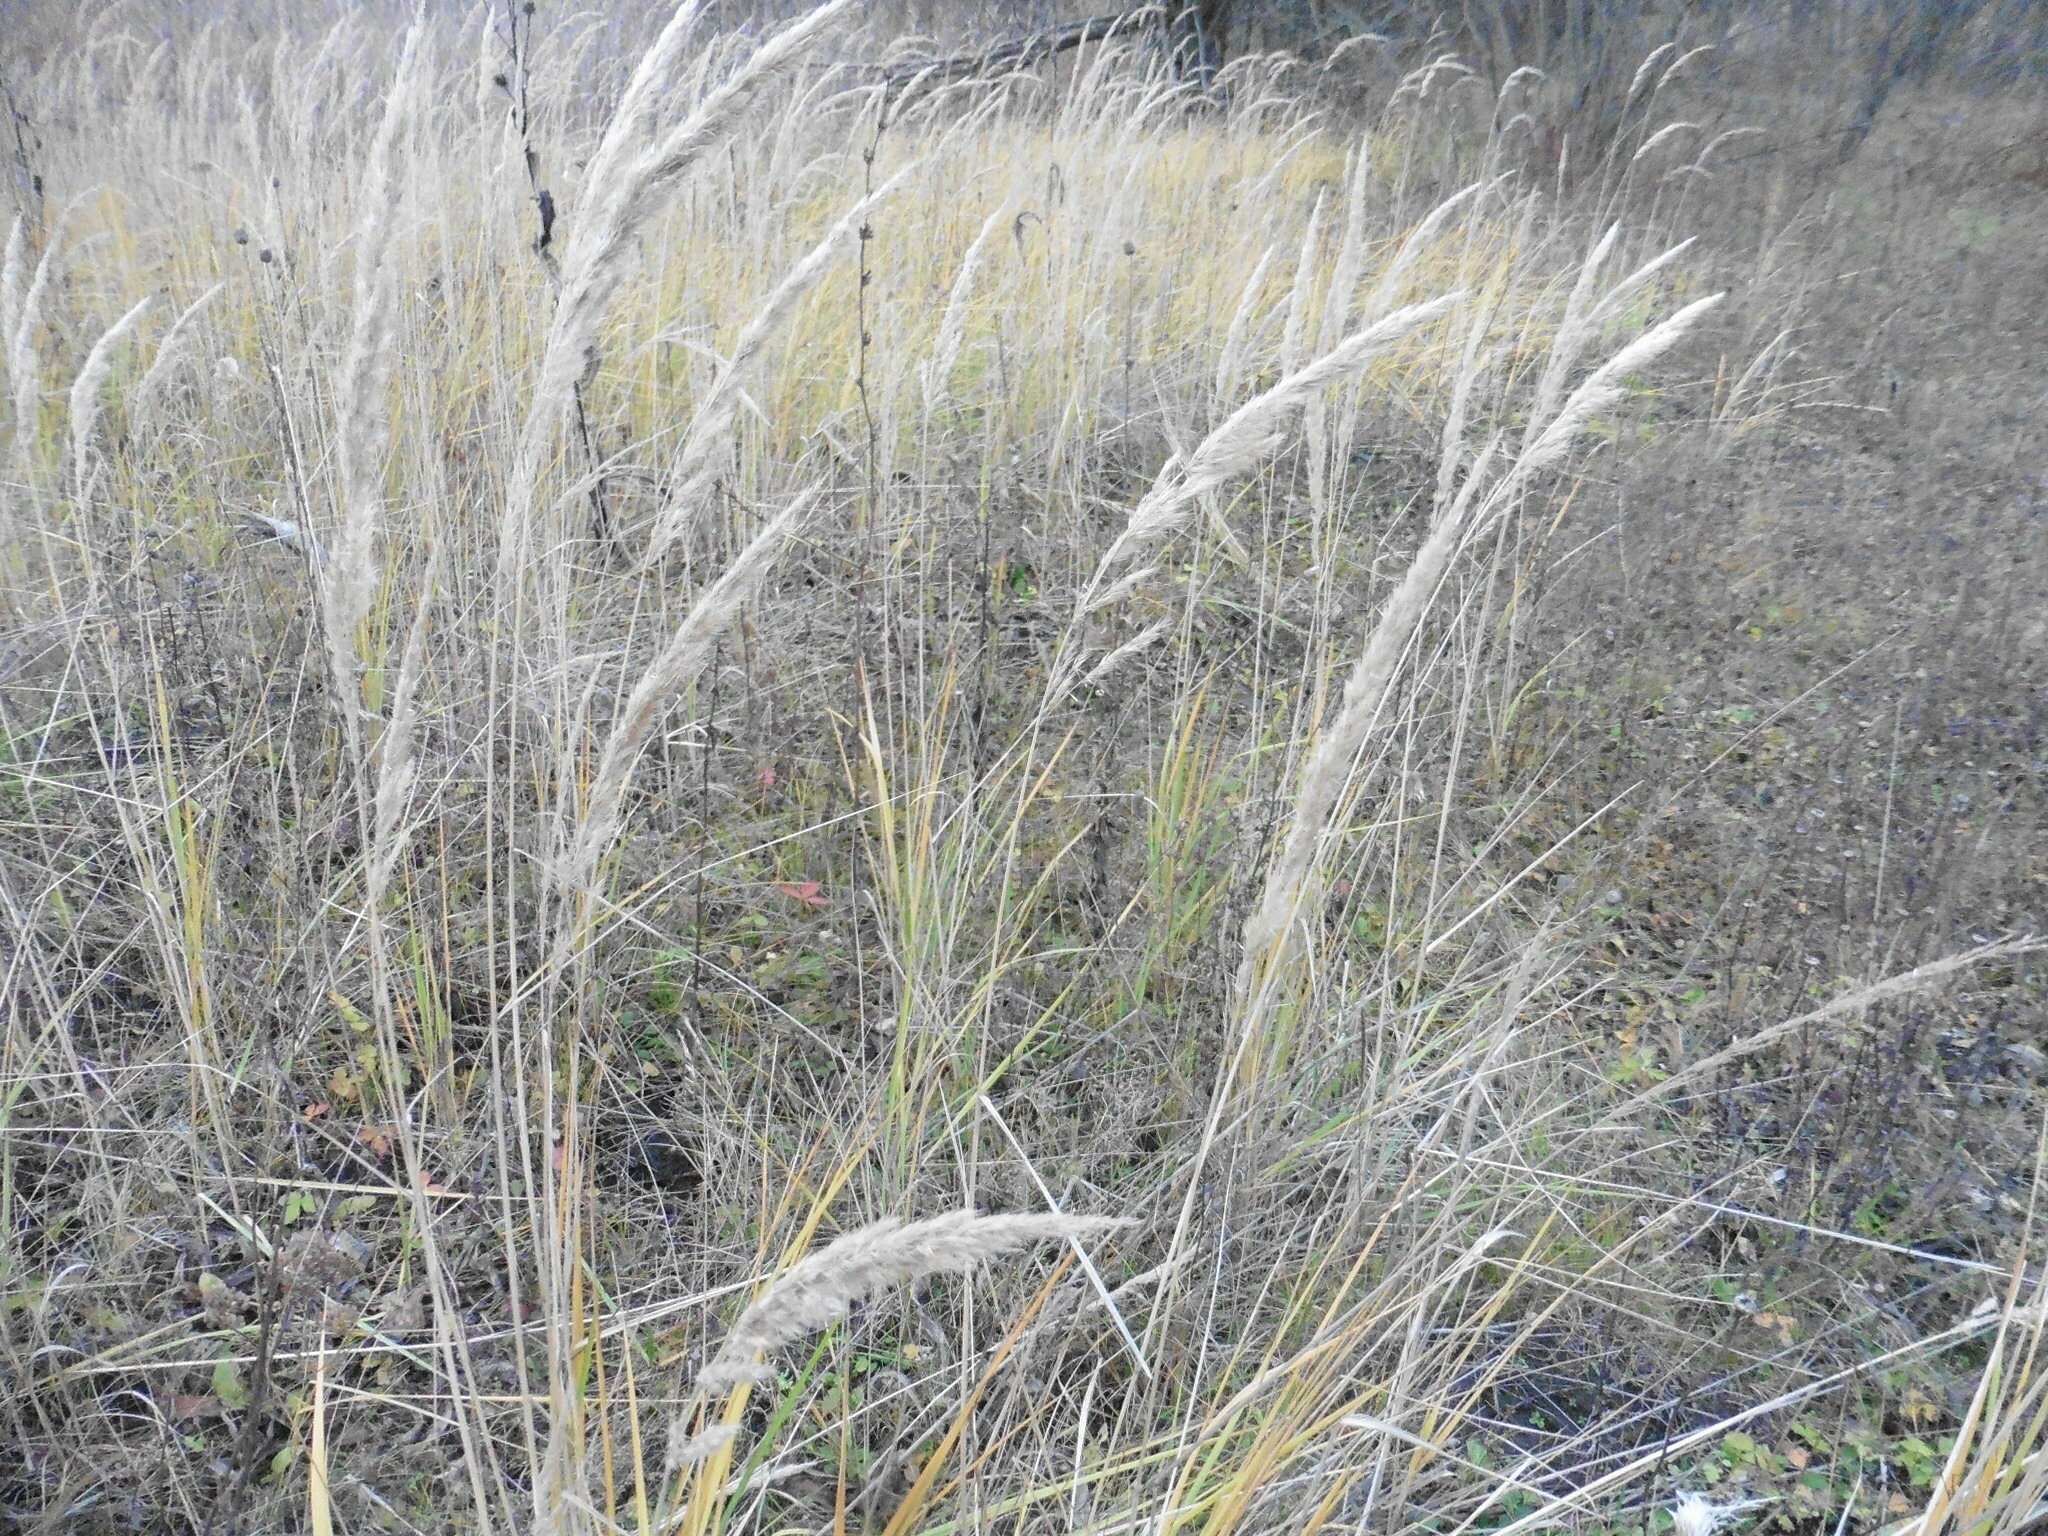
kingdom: Plantae
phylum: Tracheophyta
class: Liliopsida
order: Poales
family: Poaceae
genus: Calamagrostis
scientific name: Calamagrostis epigejos
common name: Wood small-reed
